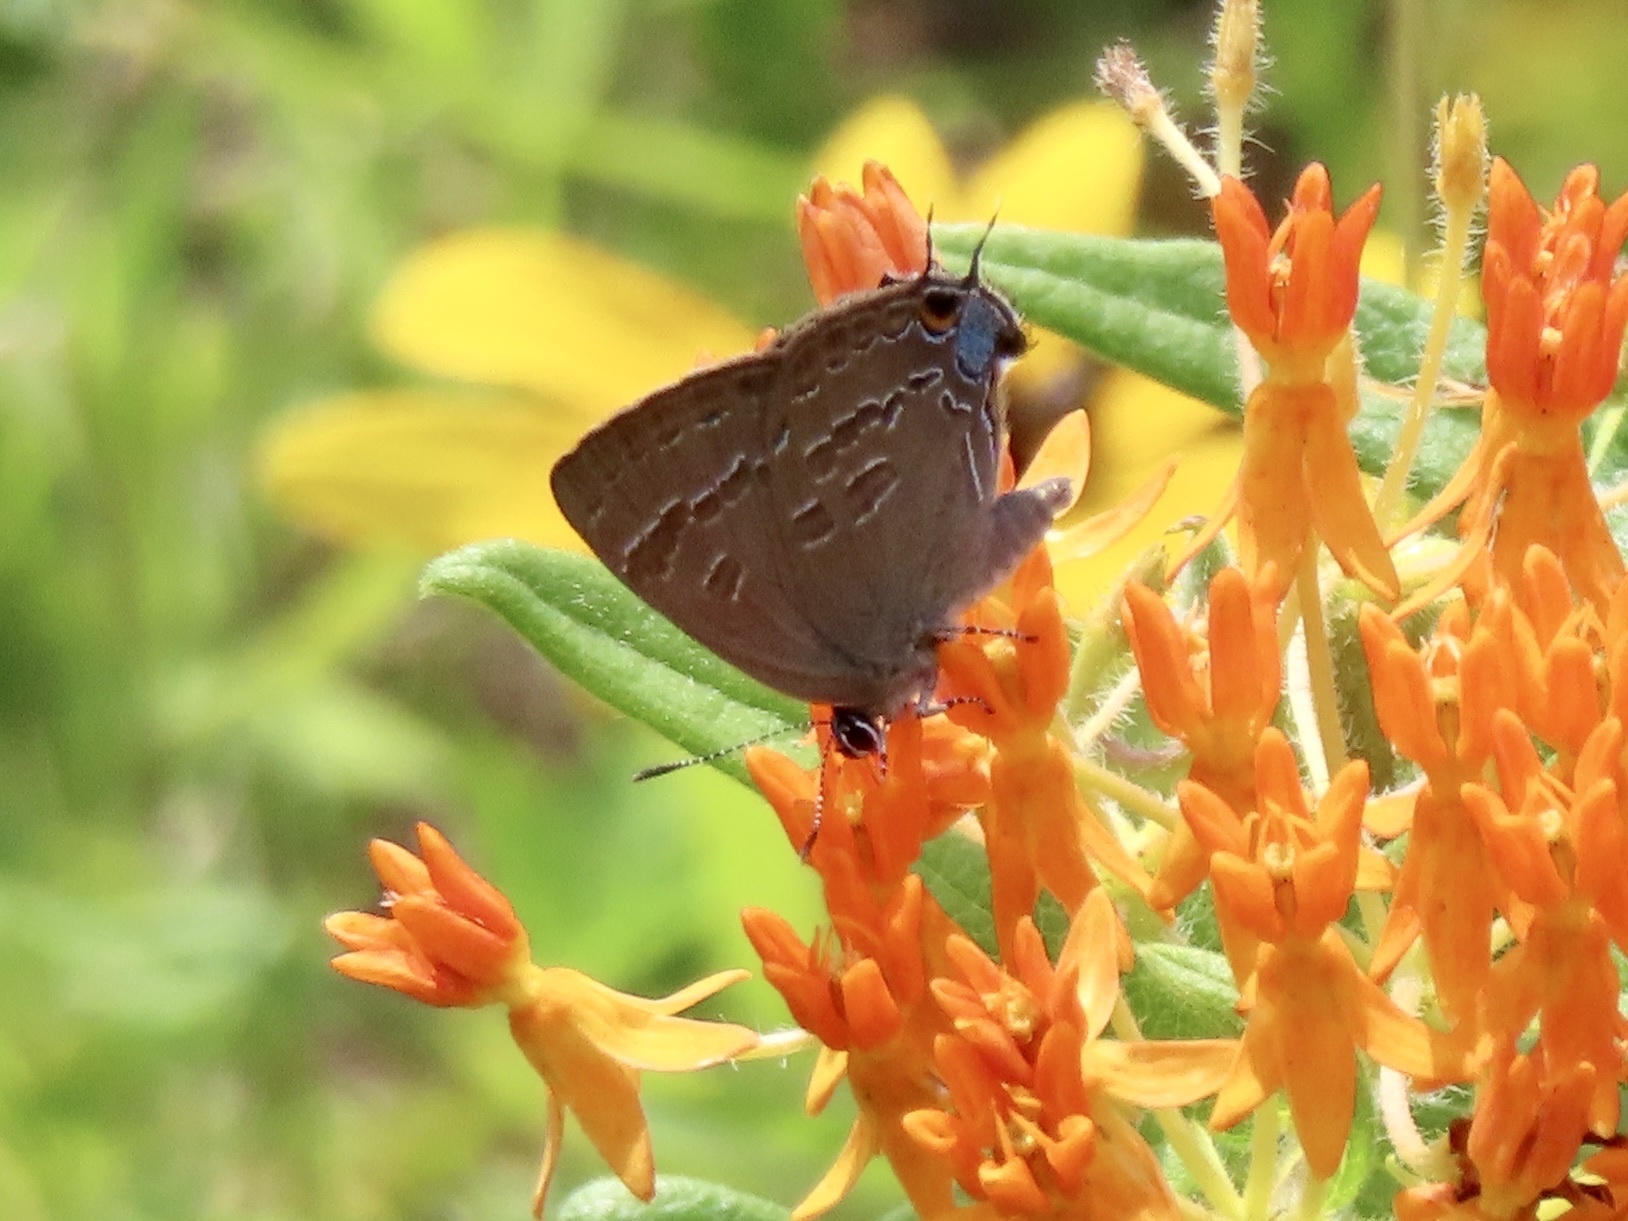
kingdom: Animalia
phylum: Arthropoda
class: Insecta
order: Lepidoptera
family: Lycaenidae
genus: Strymon
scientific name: Strymon caryaevorus
